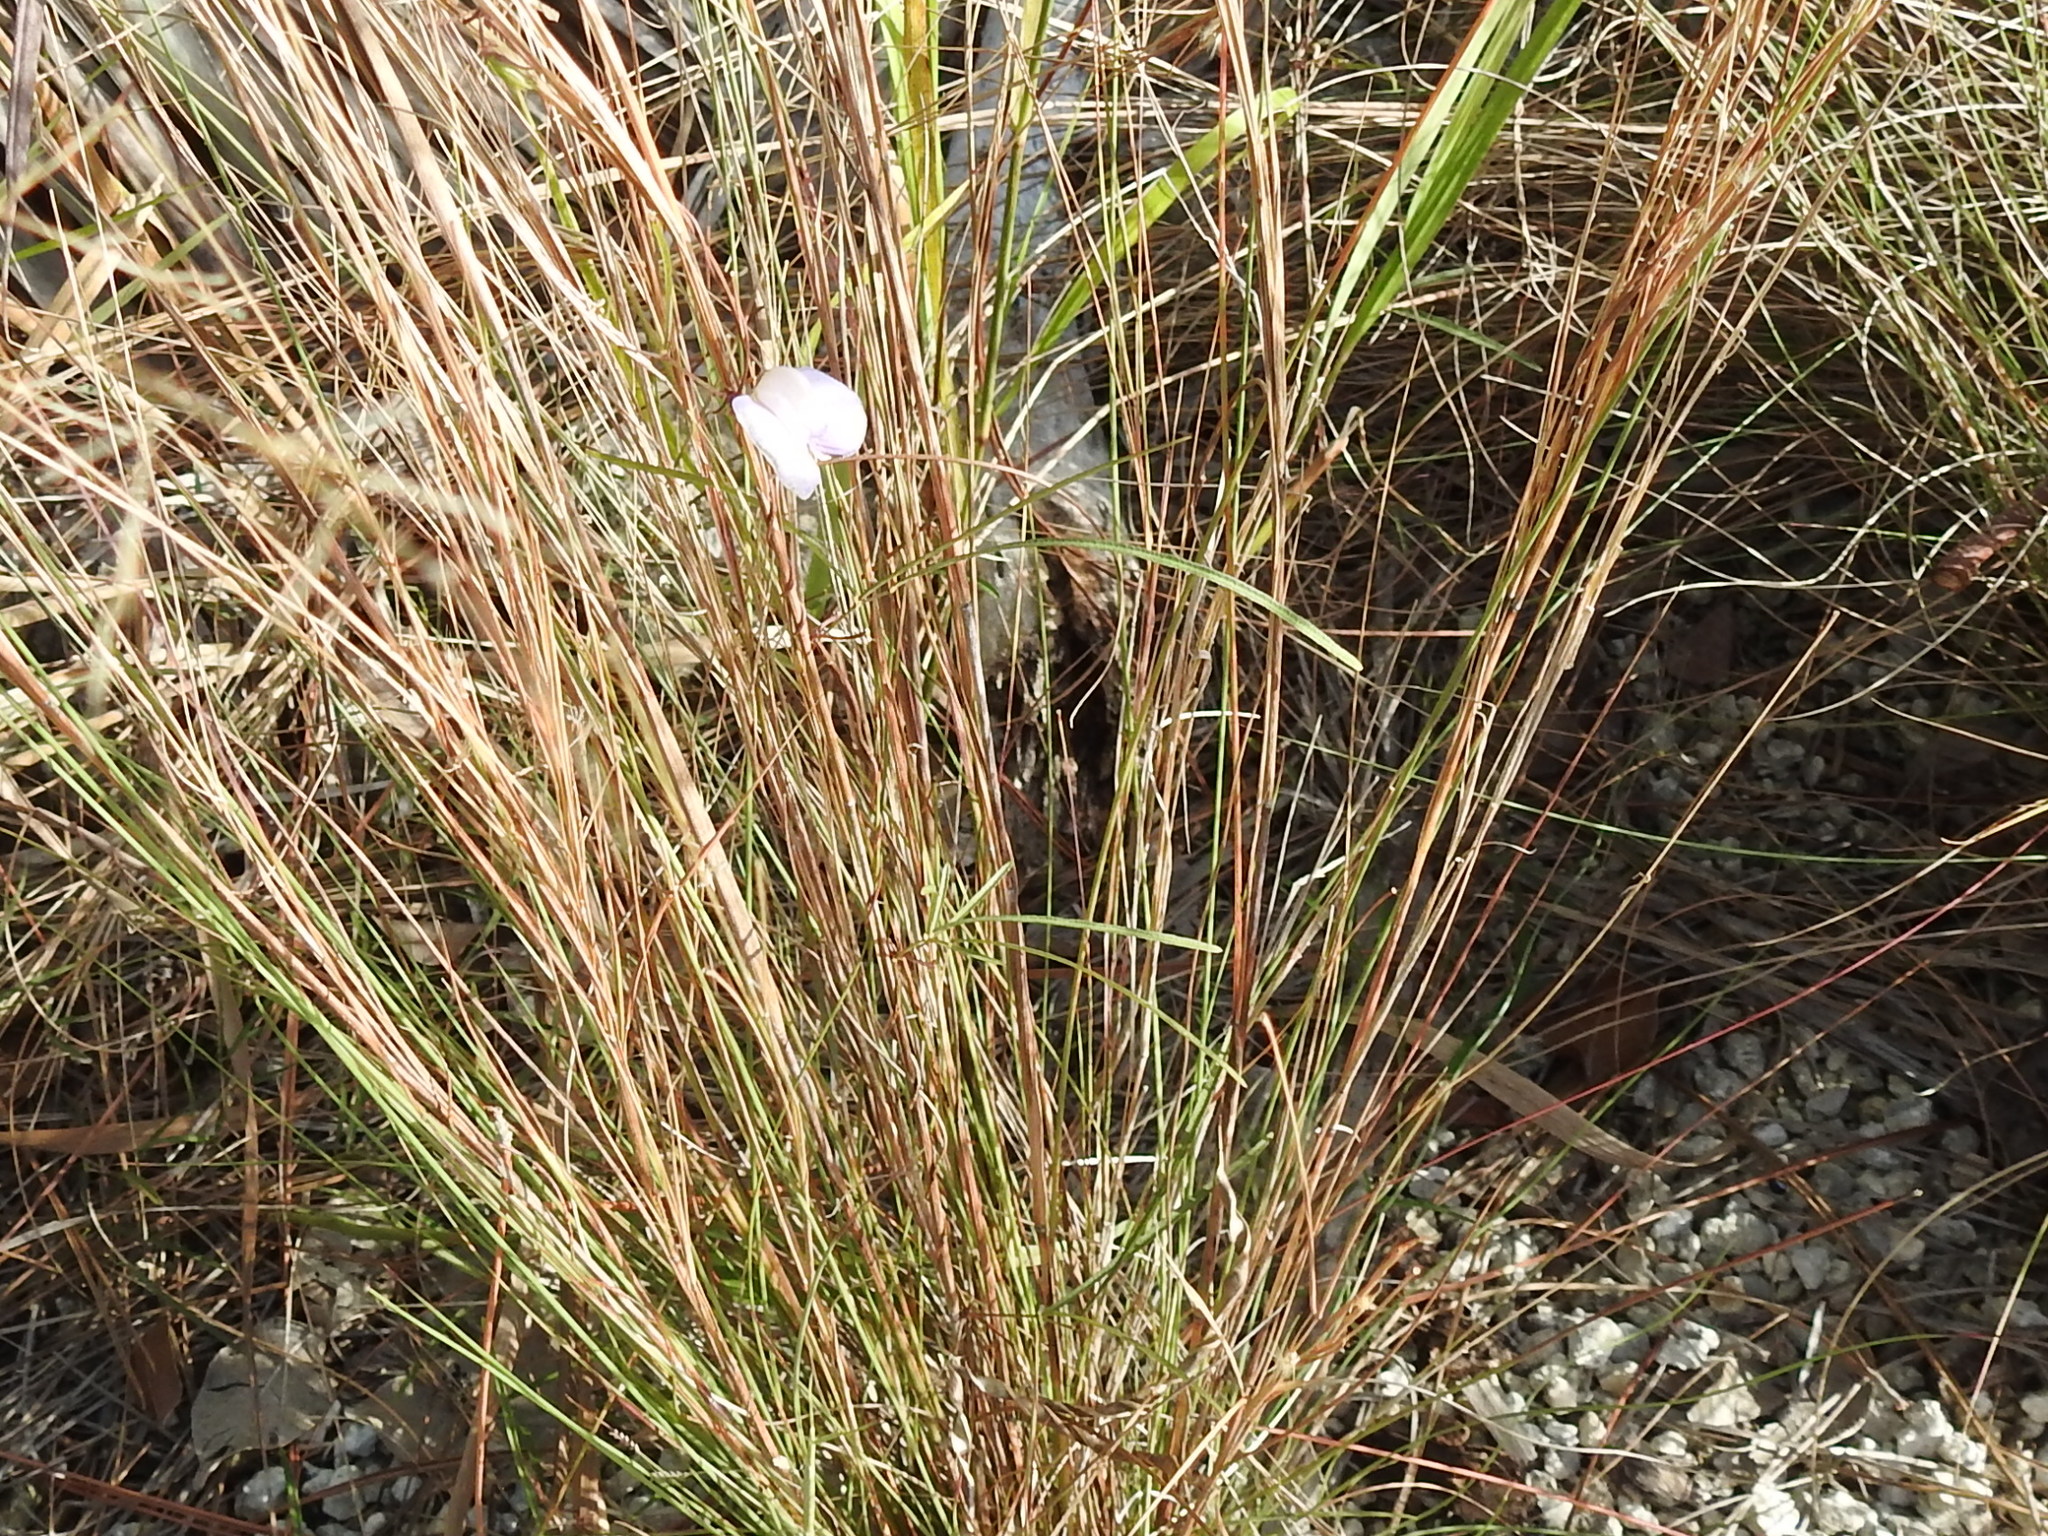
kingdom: Plantae
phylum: Tracheophyta
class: Magnoliopsida
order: Fabales
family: Fabaceae
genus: Centrosema
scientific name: Centrosema virginianum
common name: Butterfly-pea
